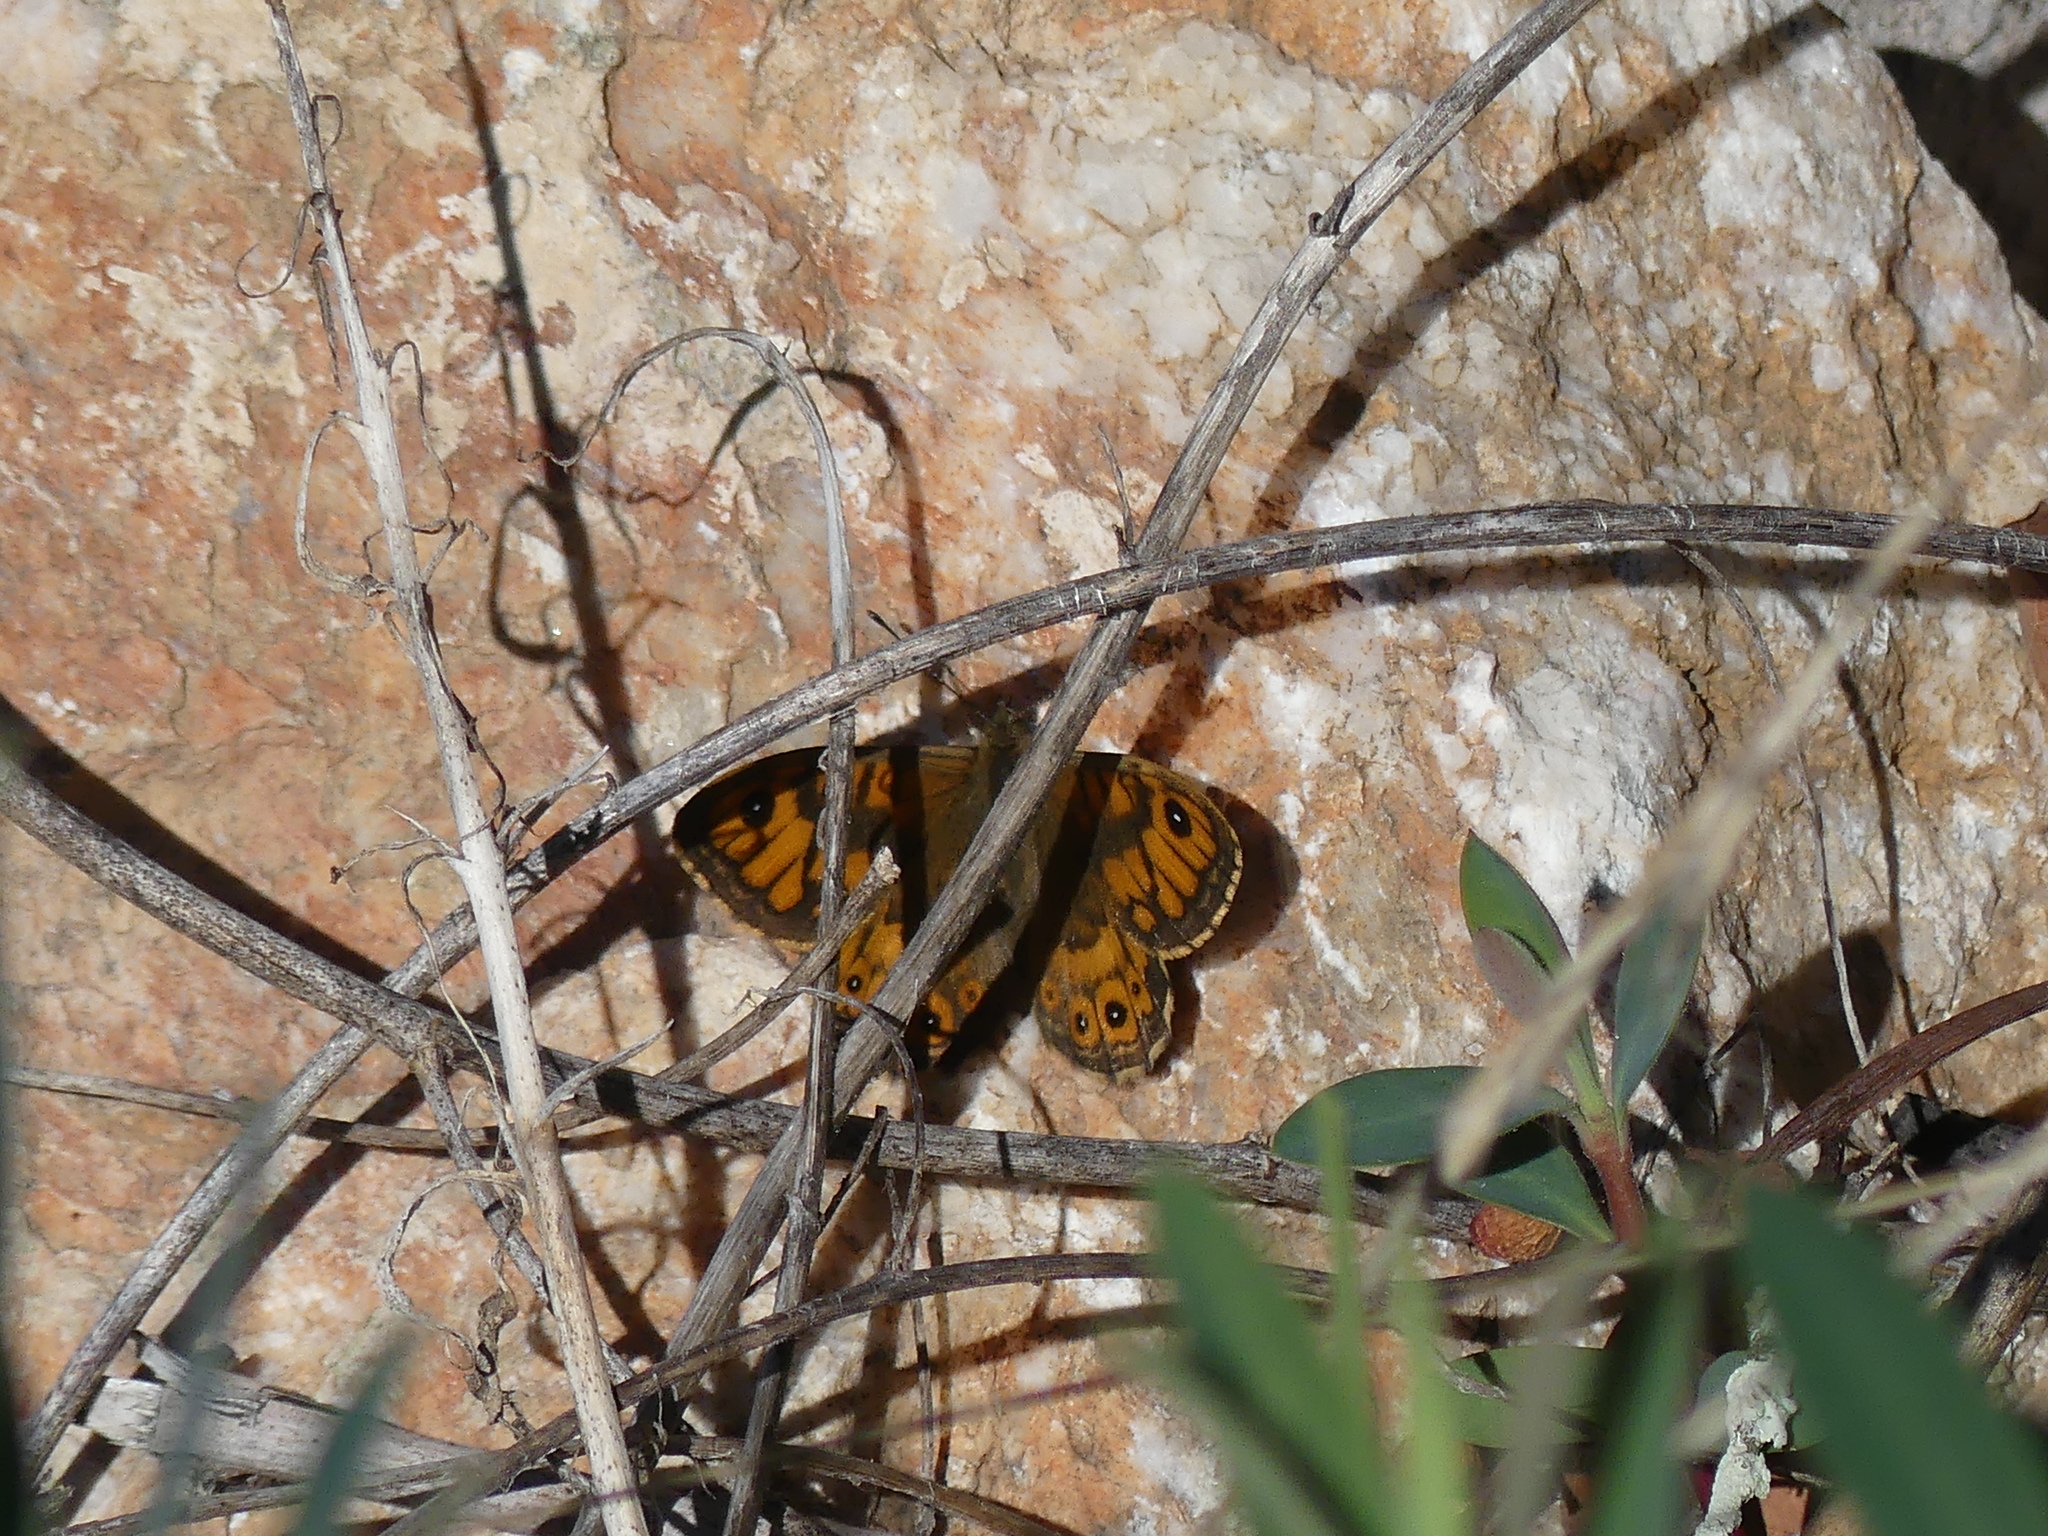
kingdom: Animalia
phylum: Arthropoda
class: Insecta
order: Lepidoptera
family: Nymphalidae
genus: Pararge
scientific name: Pararge Lasiommata megera
